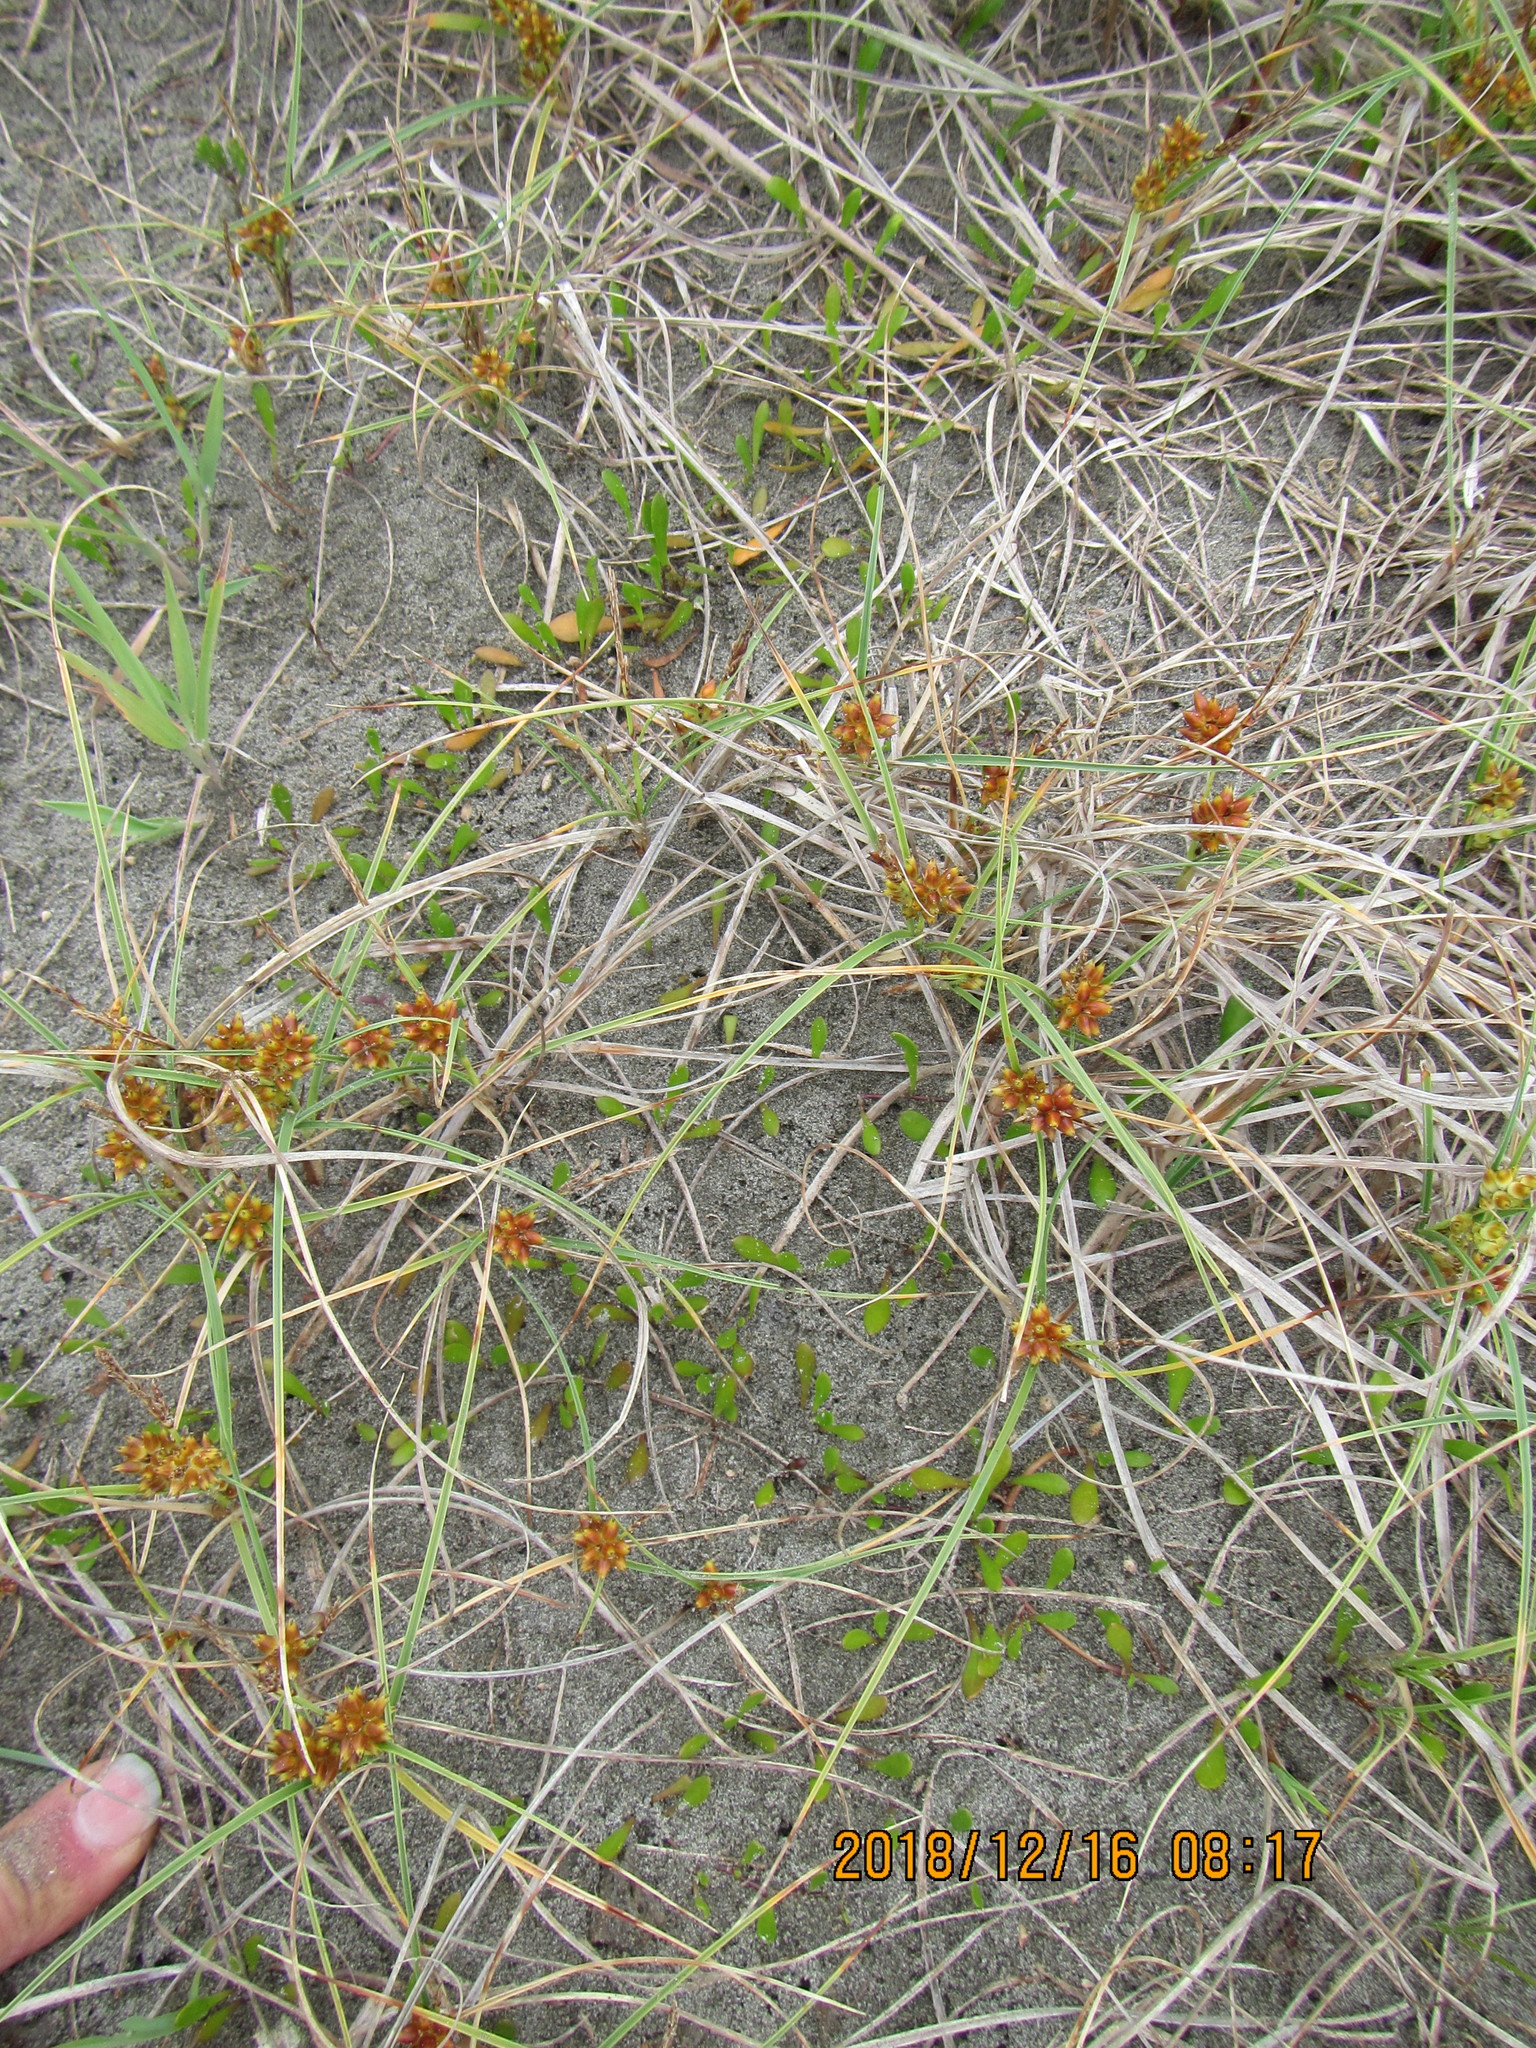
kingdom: Plantae
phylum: Tracheophyta
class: Magnoliopsida
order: Asterales
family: Goodeniaceae
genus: Goodenia
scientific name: Goodenia radicans
